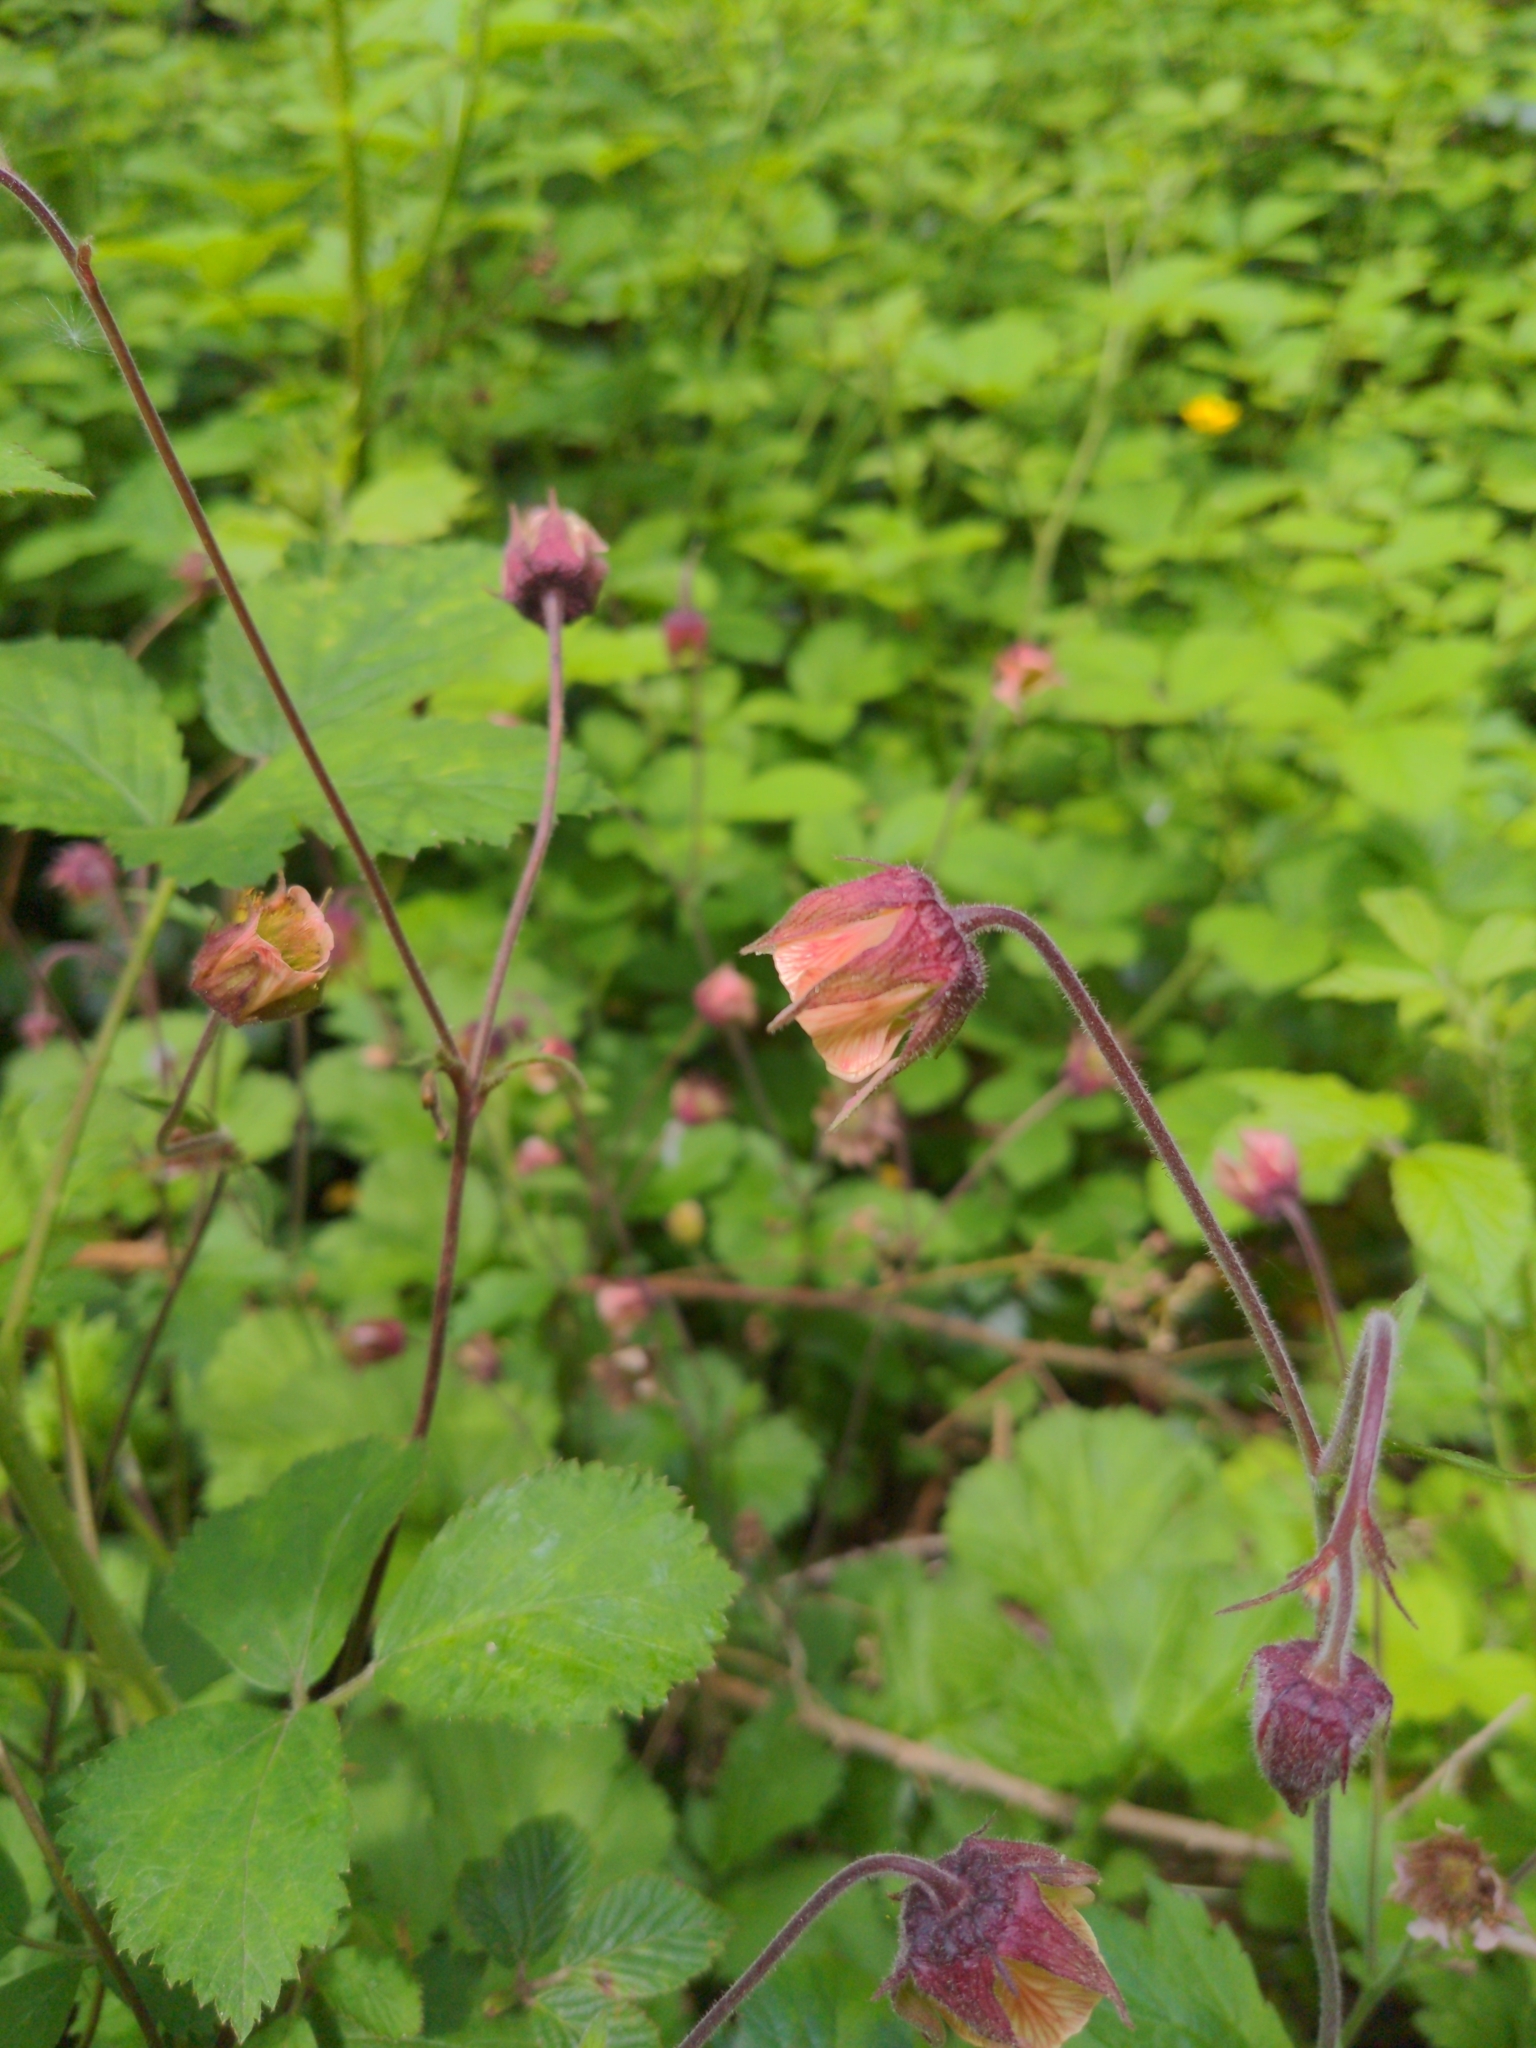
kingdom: Plantae
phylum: Tracheophyta
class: Magnoliopsida
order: Rosales
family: Rosaceae
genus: Geum
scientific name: Geum rivale
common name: Water avens
